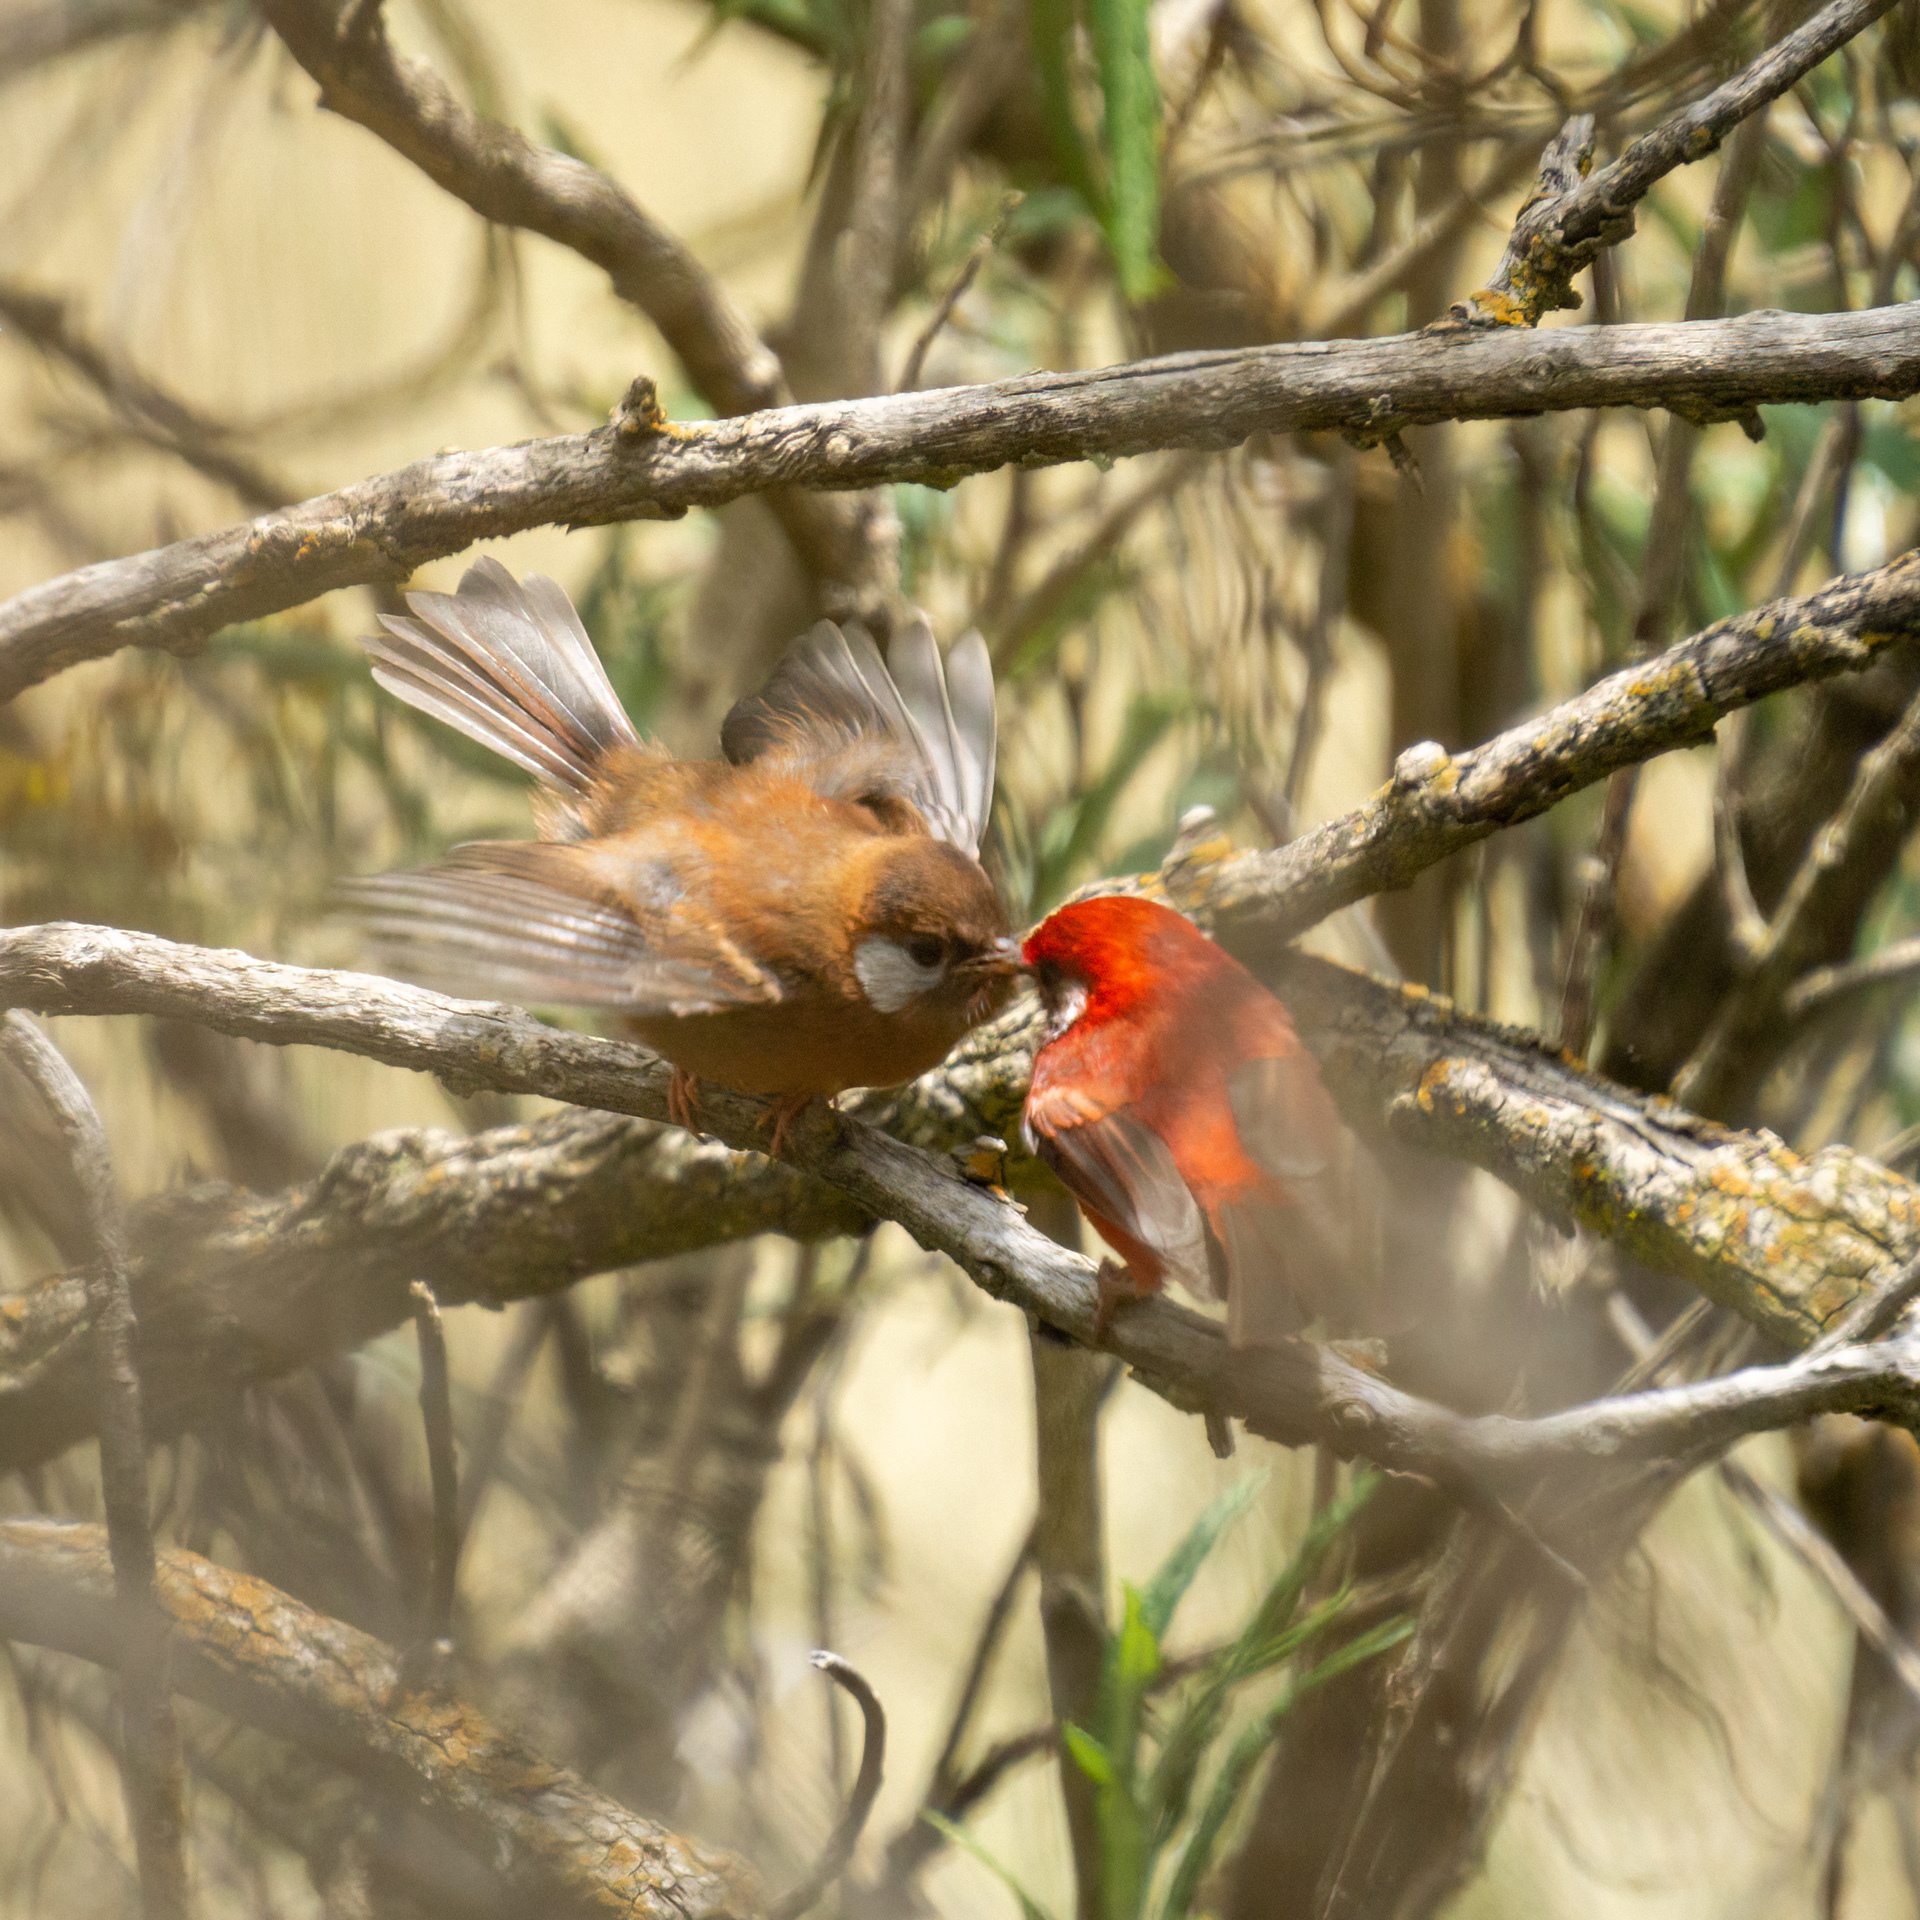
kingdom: Animalia
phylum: Chordata
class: Aves
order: Passeriformes
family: Parulidae
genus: Cardellina
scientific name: Cardellina rubra
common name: Red warbler
